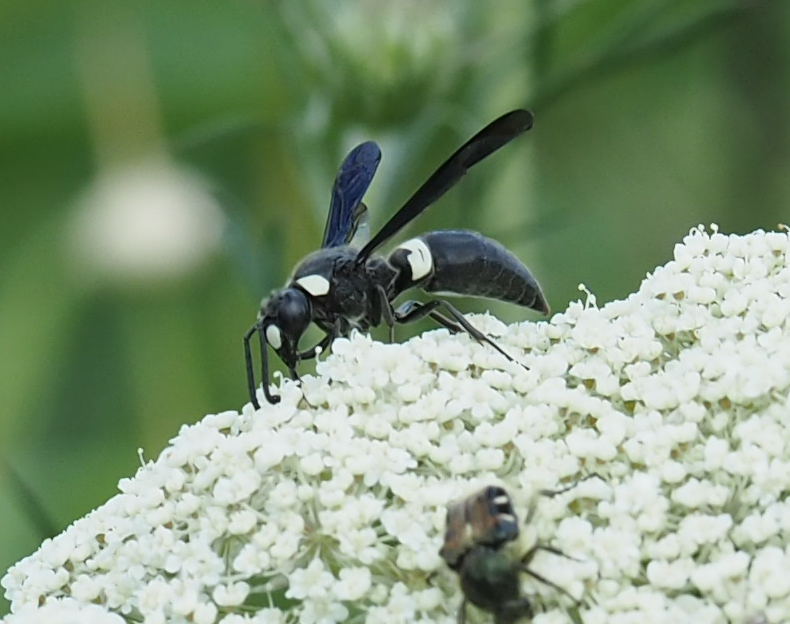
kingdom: Animalia
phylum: Arthropoda
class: Insecta
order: Hymenoptera
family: Eumenidae
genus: Monobia
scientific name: Monobia quadridens
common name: Four-toothed mason wasp
